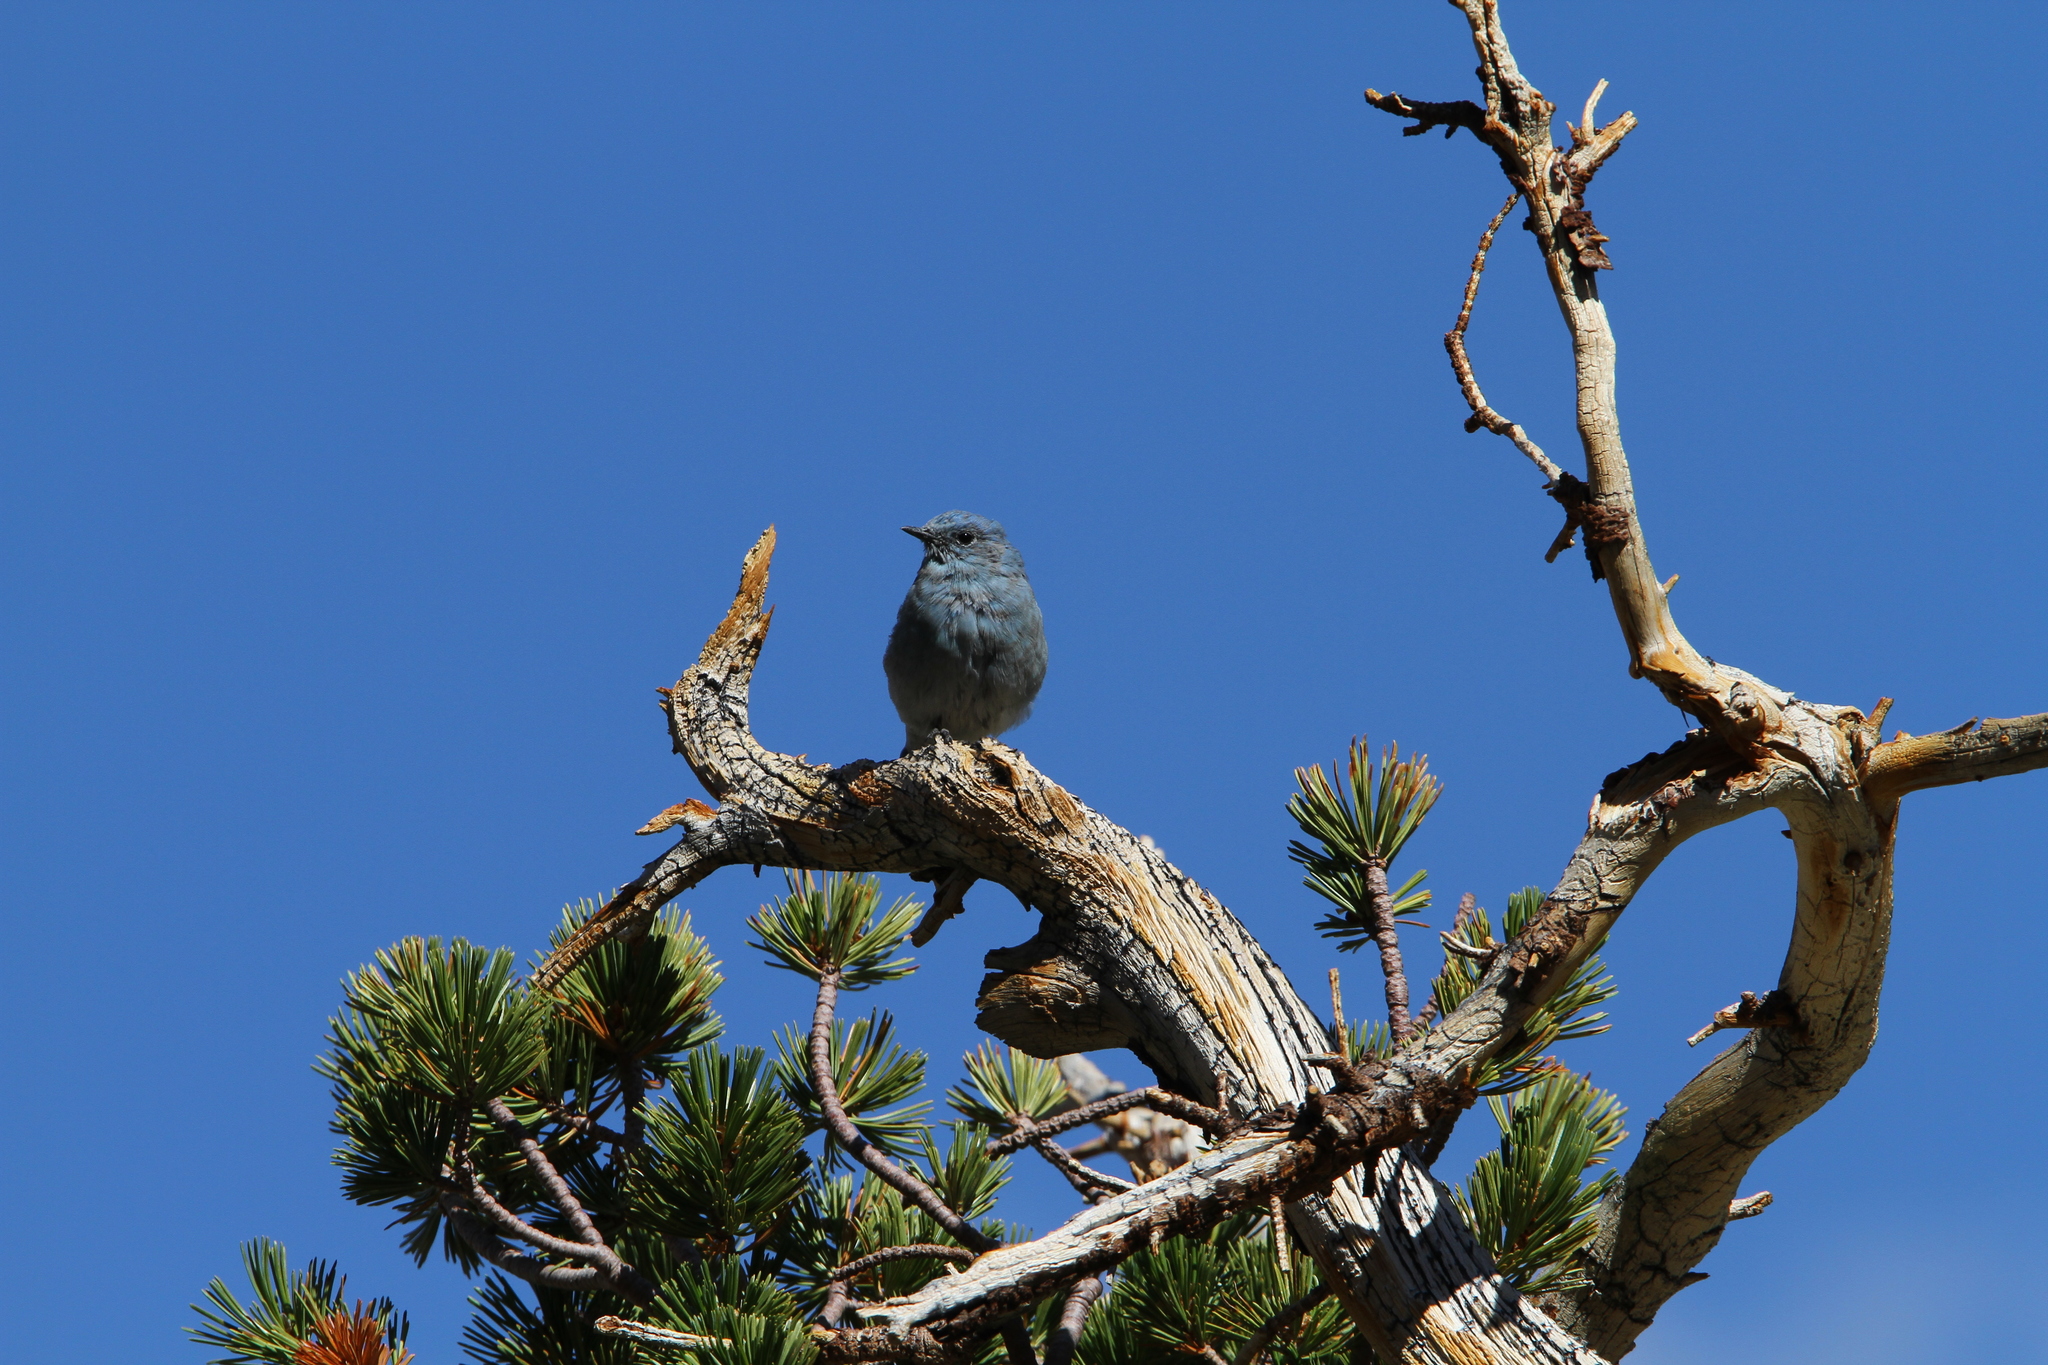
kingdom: Animalia
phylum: Chordata
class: Aves
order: Passeriformes
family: Turdidae
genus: Sialia
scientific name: Sialia currucoides
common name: Mountain bluebird
